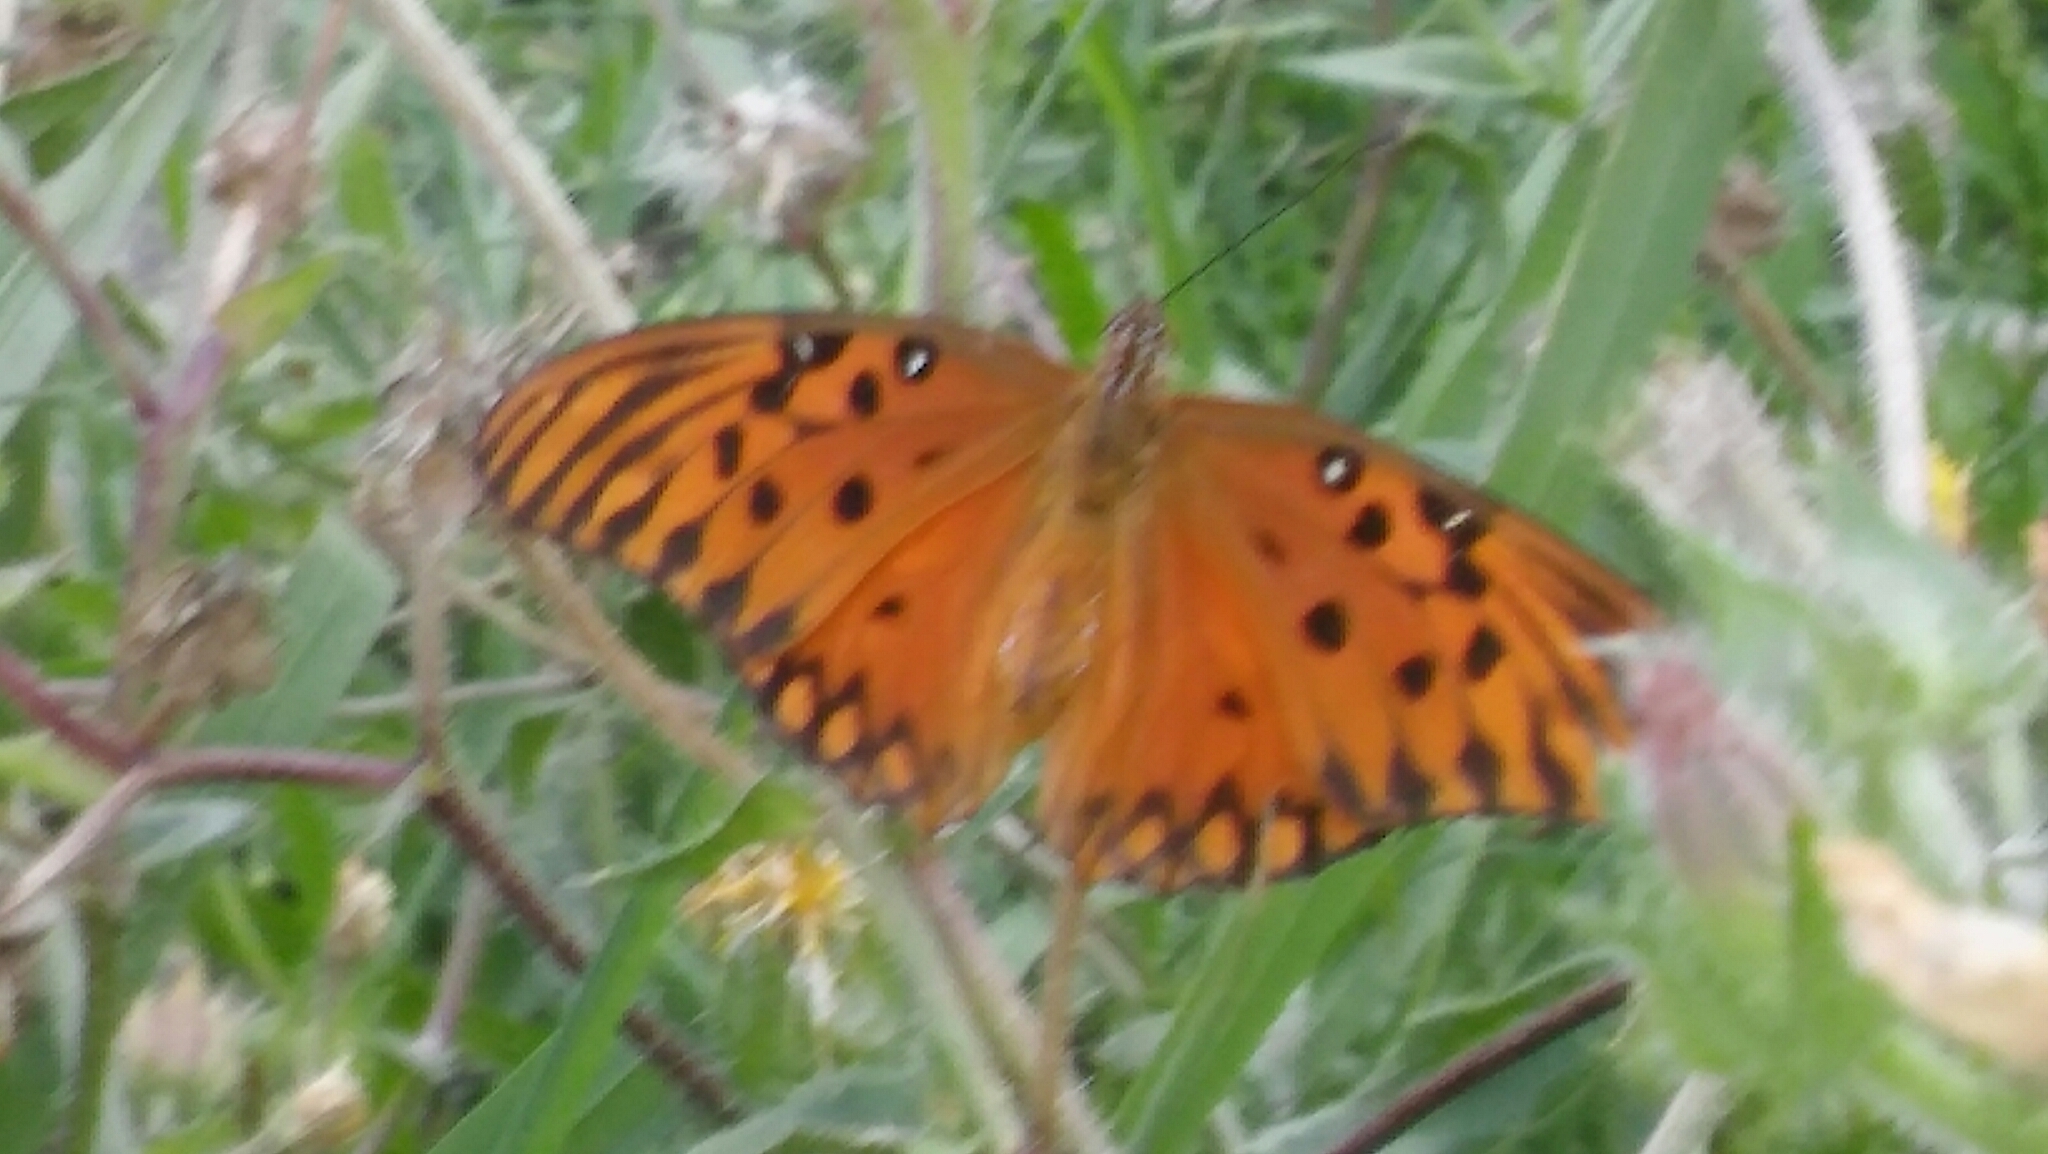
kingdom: Animalia
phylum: Arthropoda
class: Insecta
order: Lepidoptera
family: Nymphalidae
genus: Dione
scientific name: Dione vanillae
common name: Gulf fritillary
